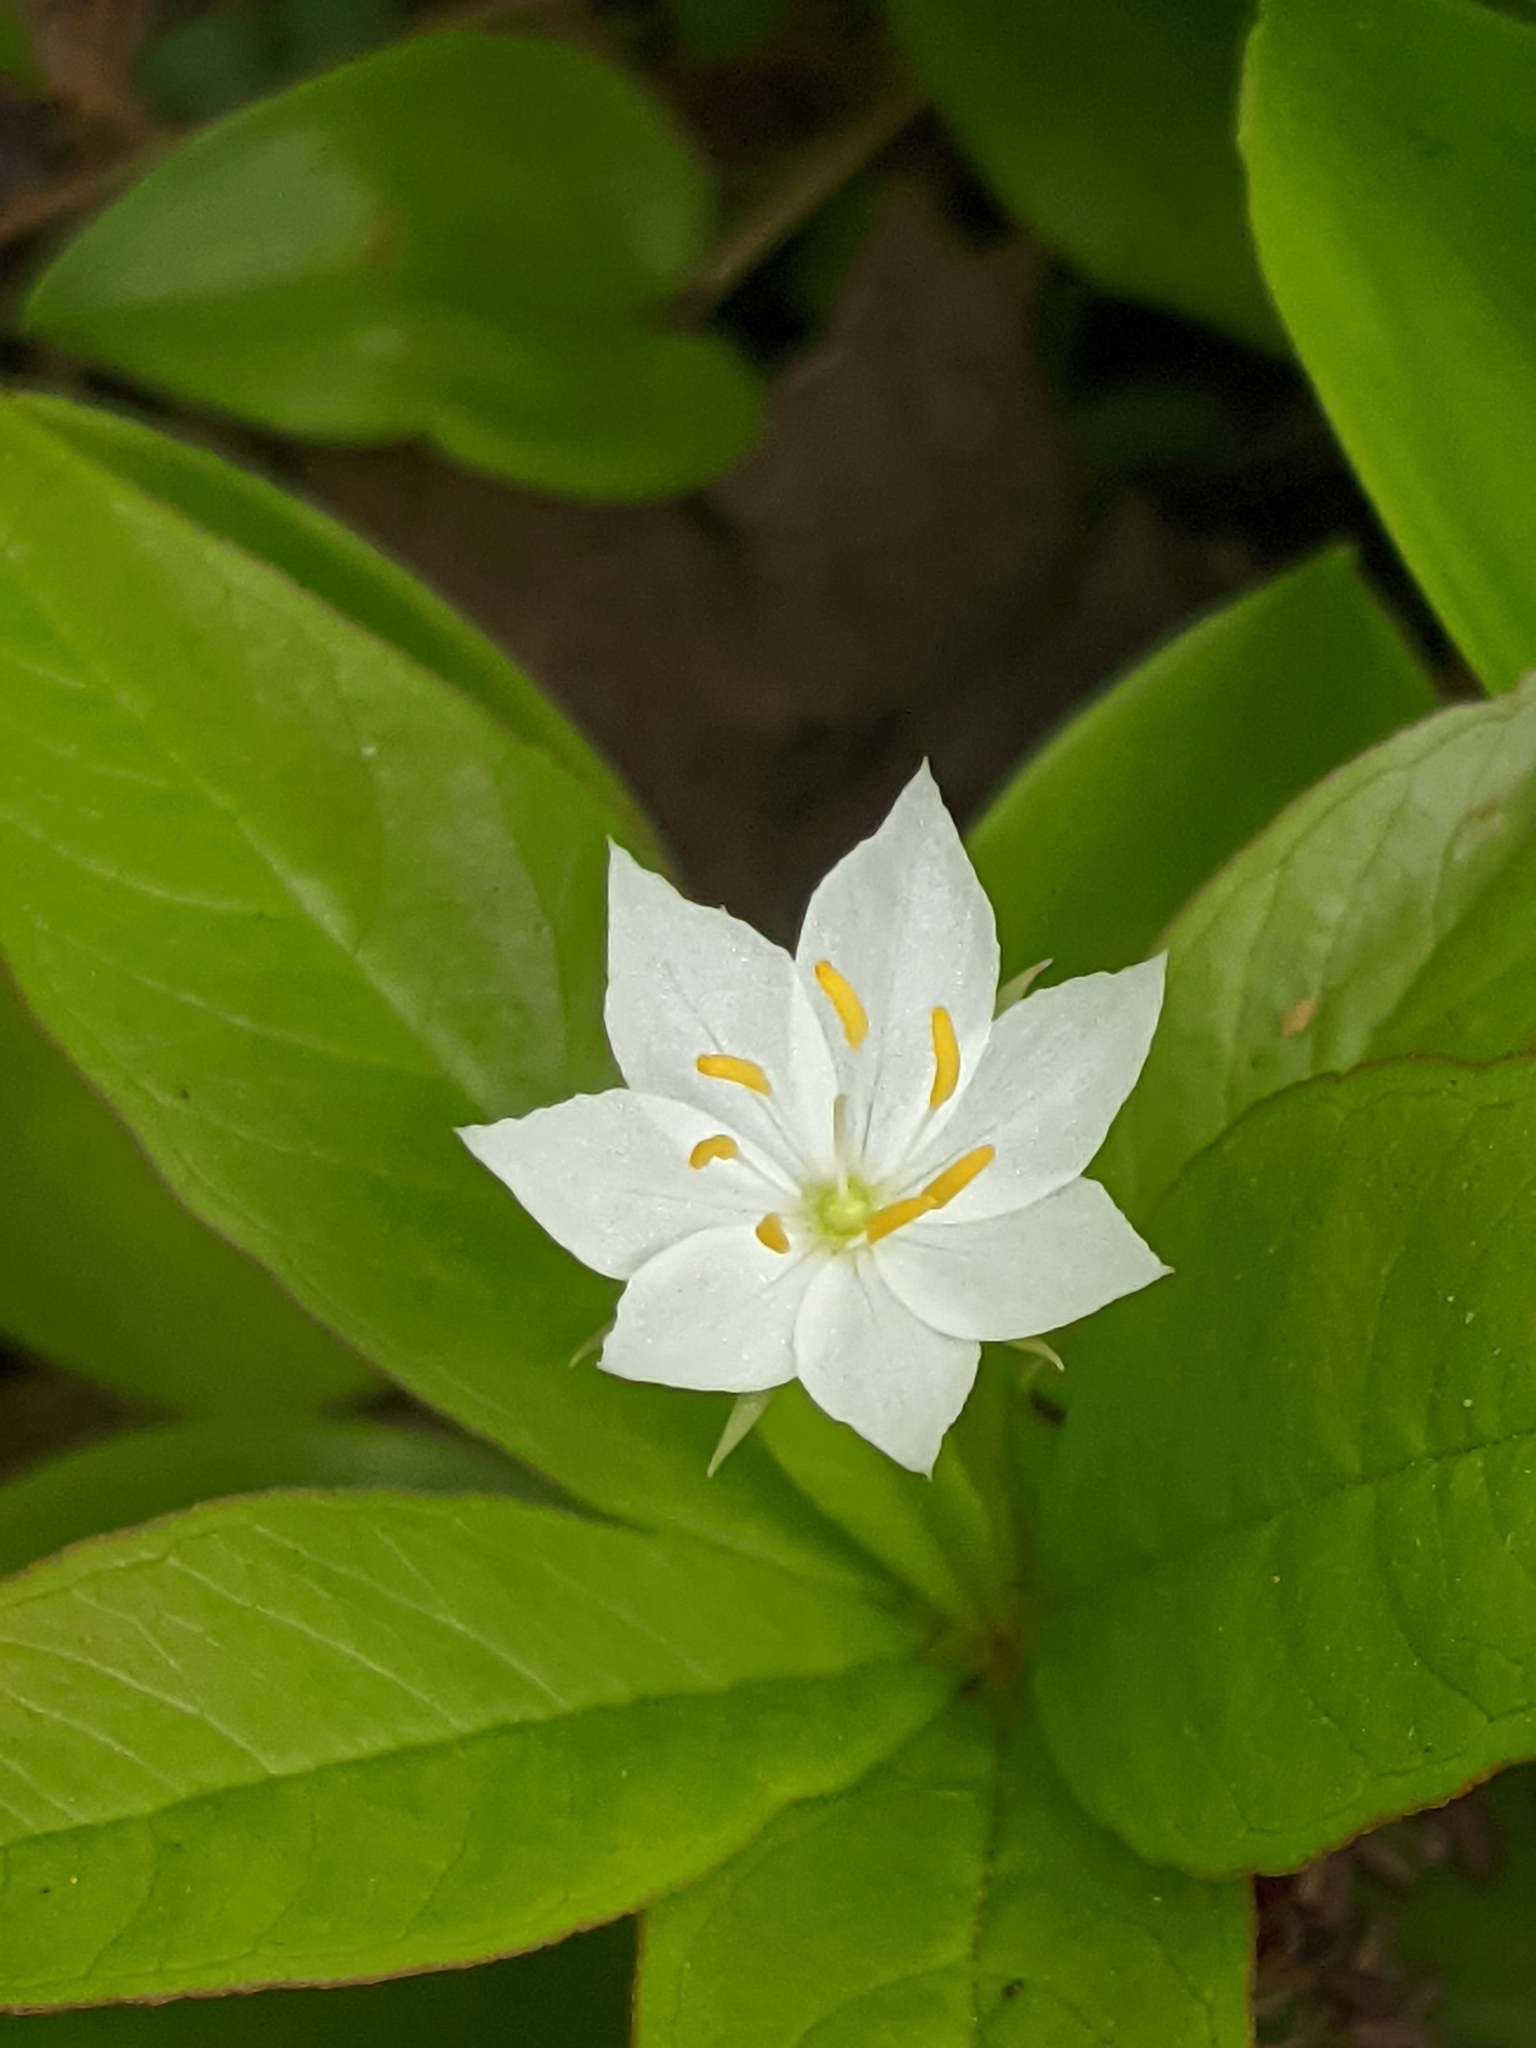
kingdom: Plantae
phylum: Tracheophyta
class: Magnoliopsida
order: Ericales
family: Primulaceae
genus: Lysimachia
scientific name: Lysimachia borealis
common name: American starflower
